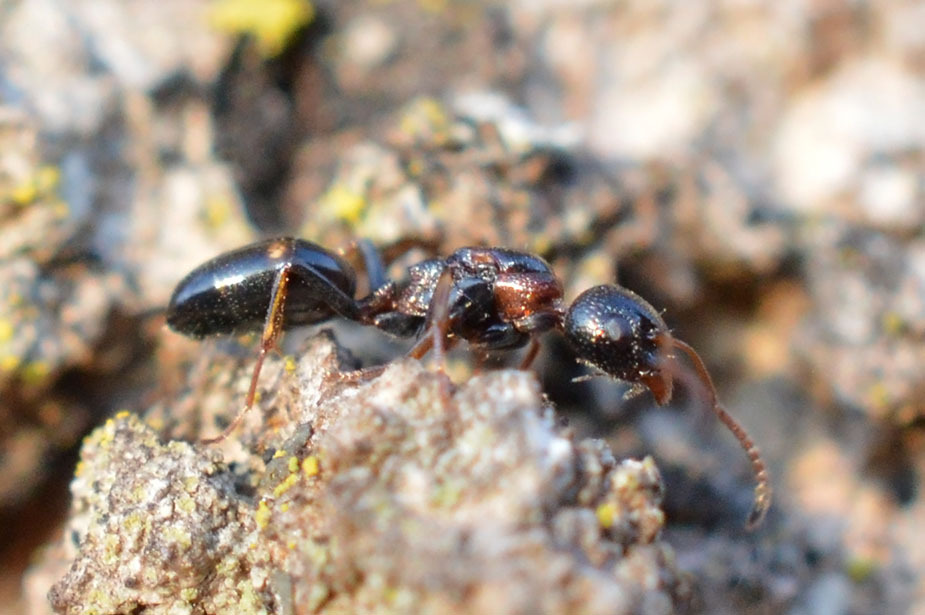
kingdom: Animalia
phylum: Arthropoda
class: Insecta
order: Hymenoptera
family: Formicidae
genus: Dolichoderus
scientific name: Dolichoderus quadripunctatus
